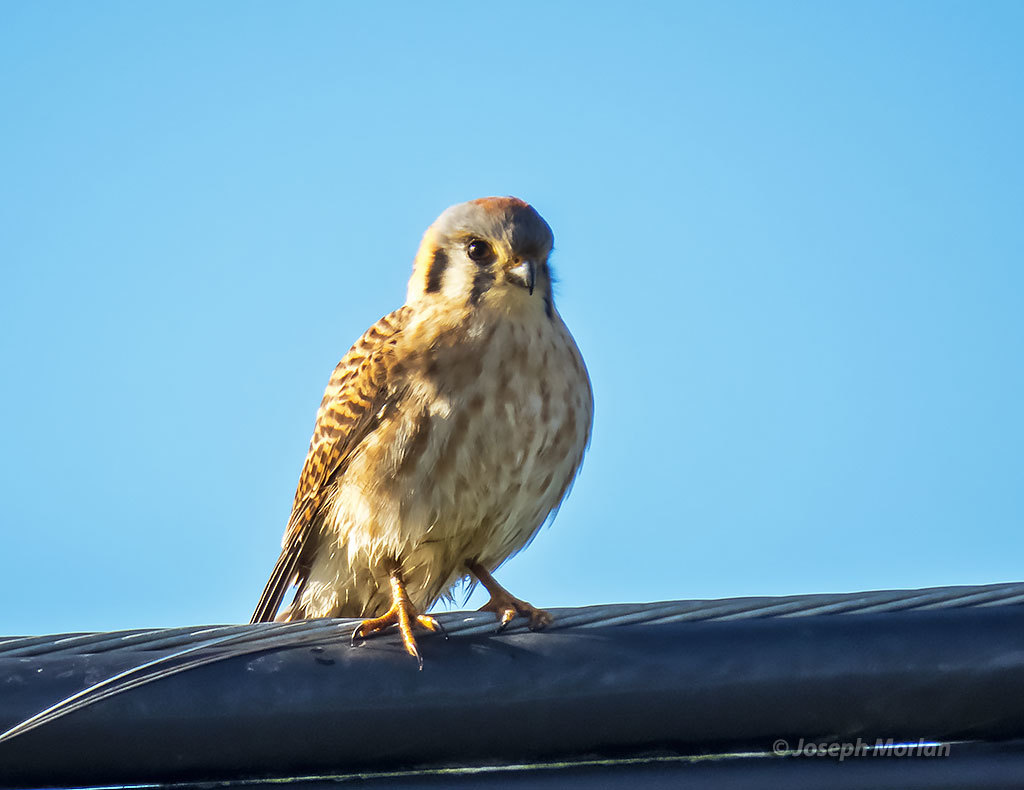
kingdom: Animalia
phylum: Chordata
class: Aves
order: Falconiformes
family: Falconidae
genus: Falco
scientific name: Falco sparverius
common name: American kestrel
